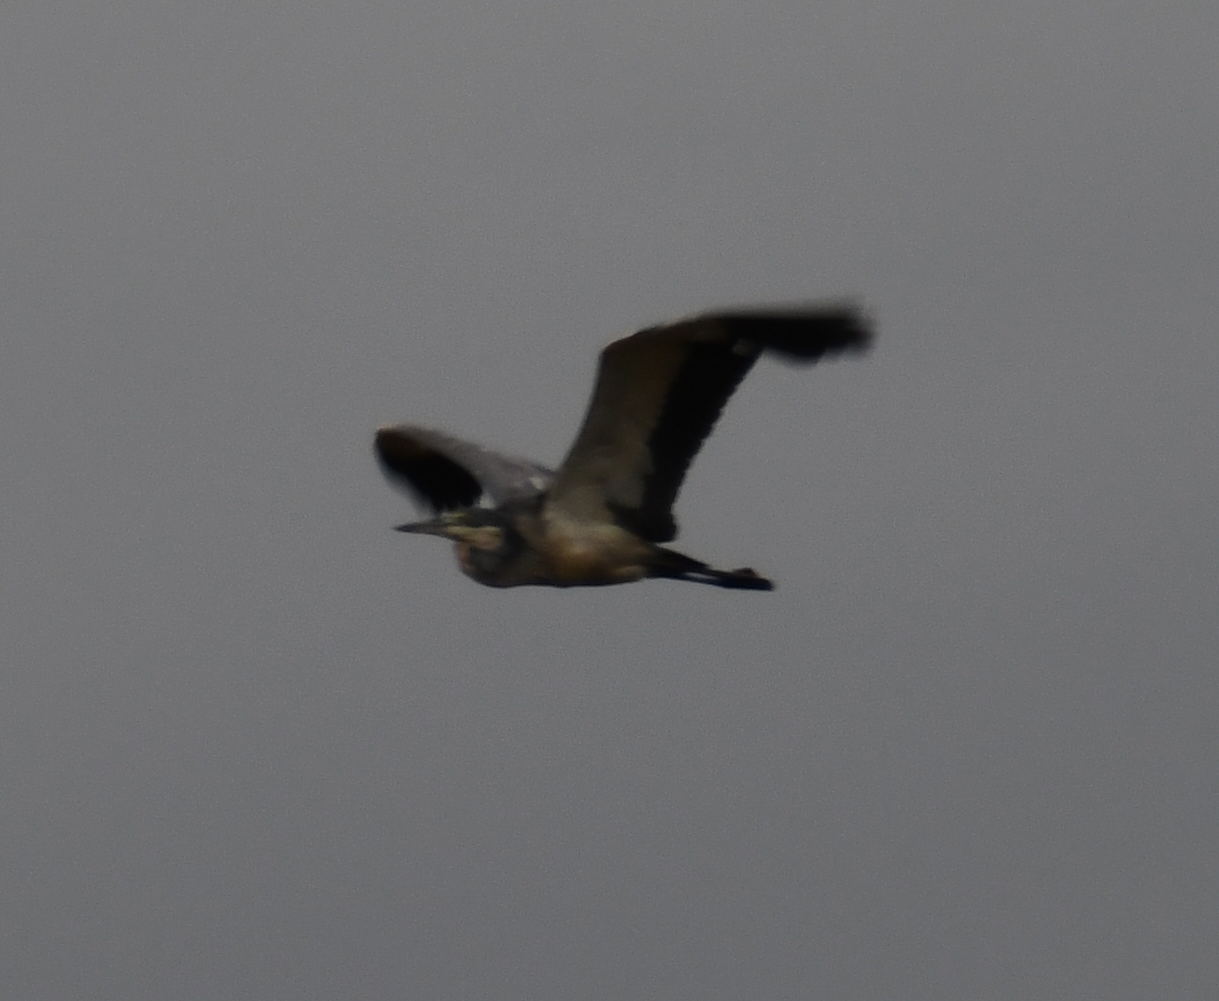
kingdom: Animalia
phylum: Chordata
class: Aves
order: Pelecaniformes
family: Ardeidae
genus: Ardea
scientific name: Ardea melanocephala
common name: Black-headed heron
